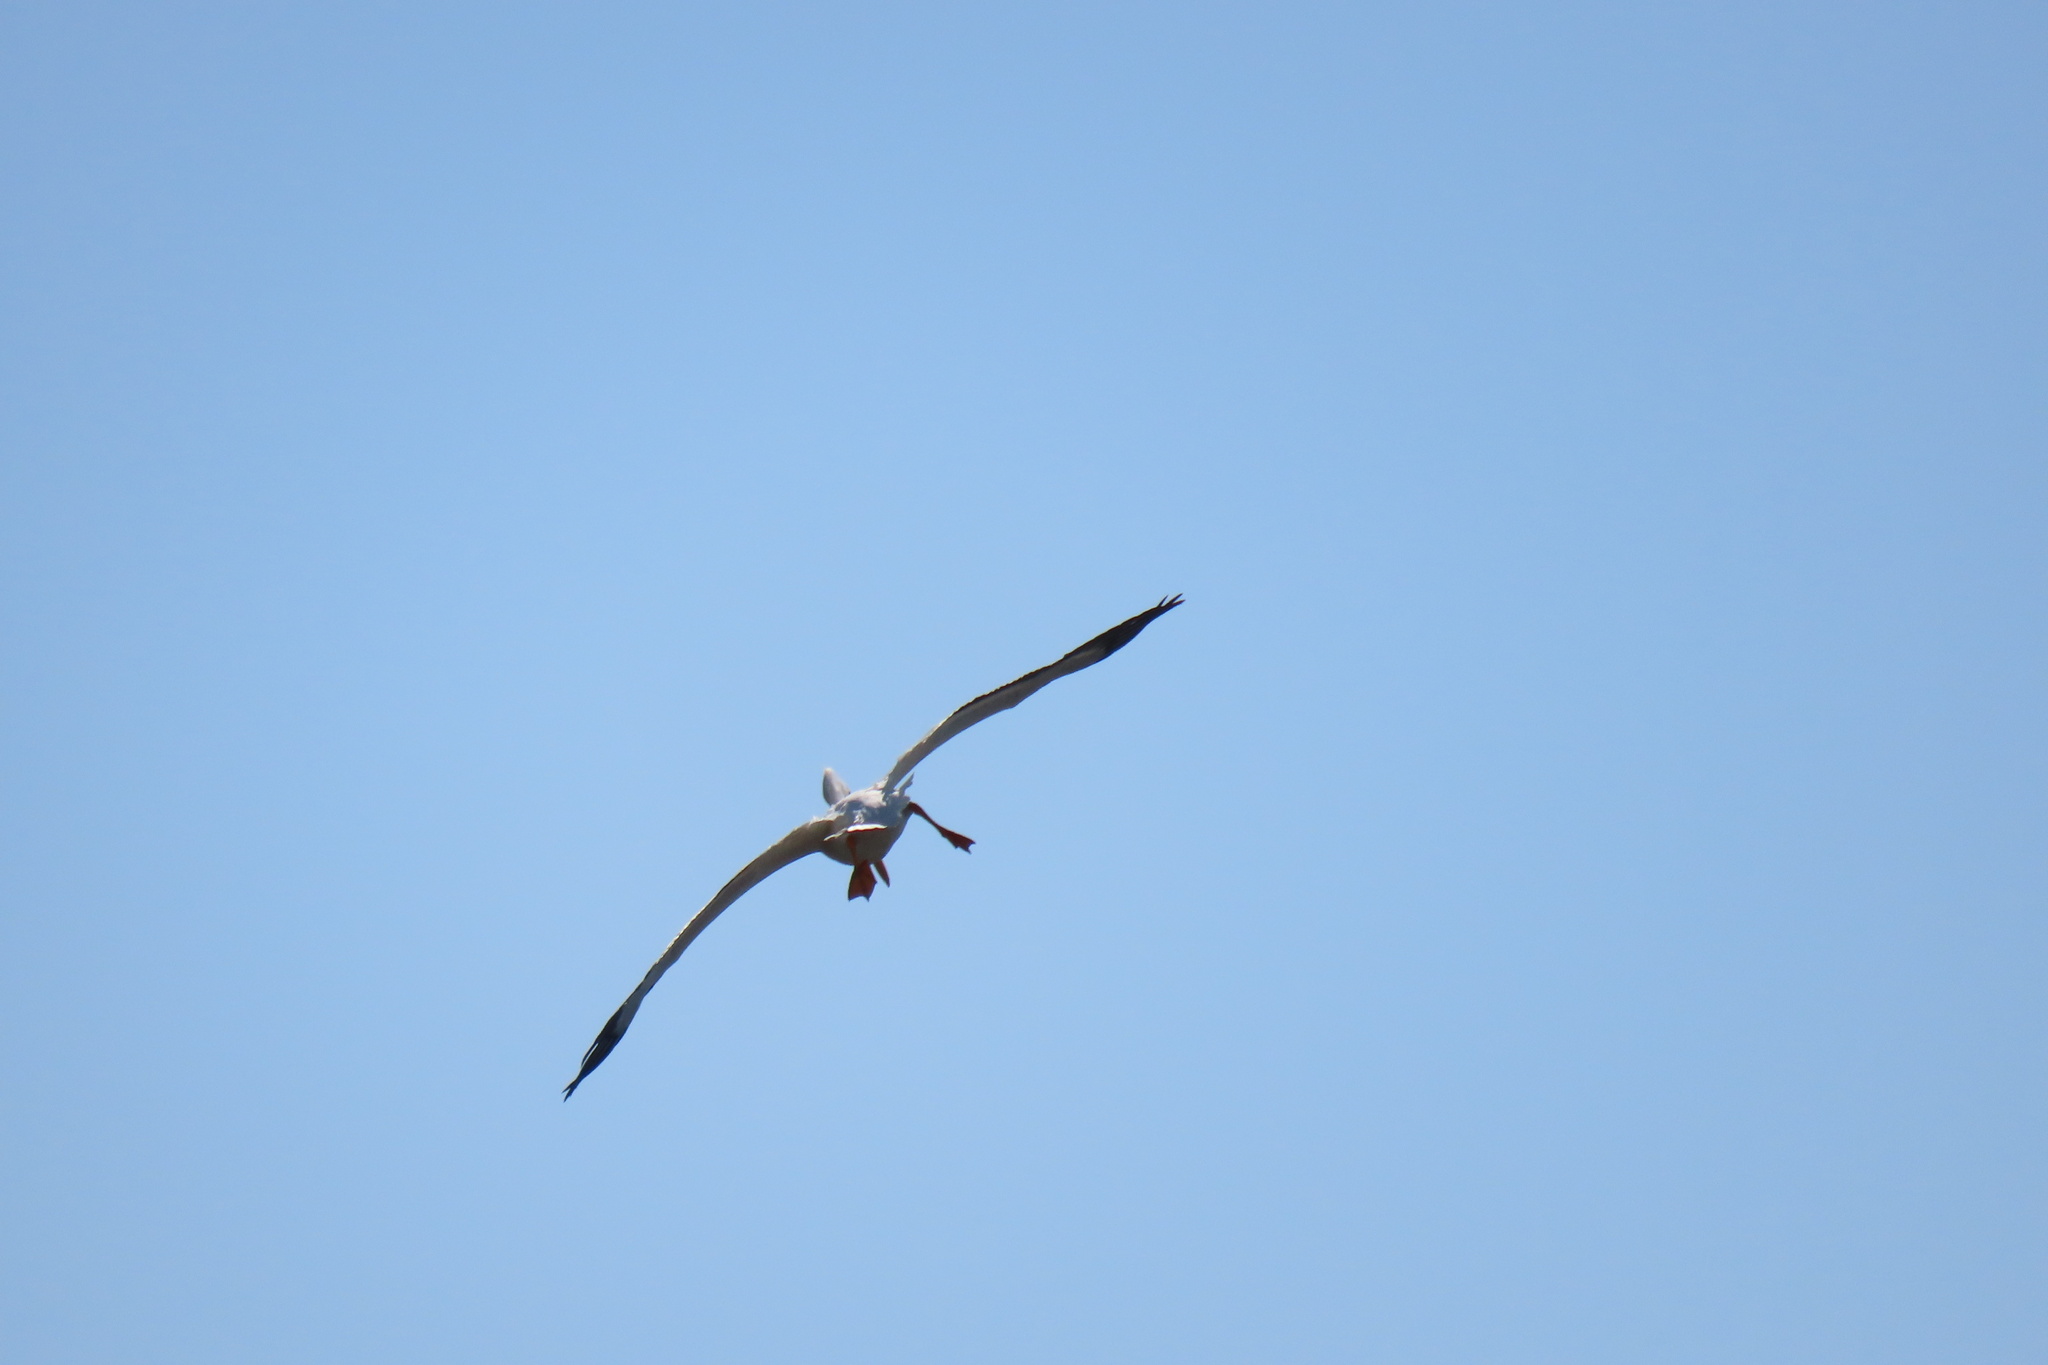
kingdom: Animalia
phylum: Chordata
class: Aves
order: Pelecaniformes
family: Pelecanidae
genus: Pelecanus
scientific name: Pelecanus erythrorhynchos
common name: American white pelican
